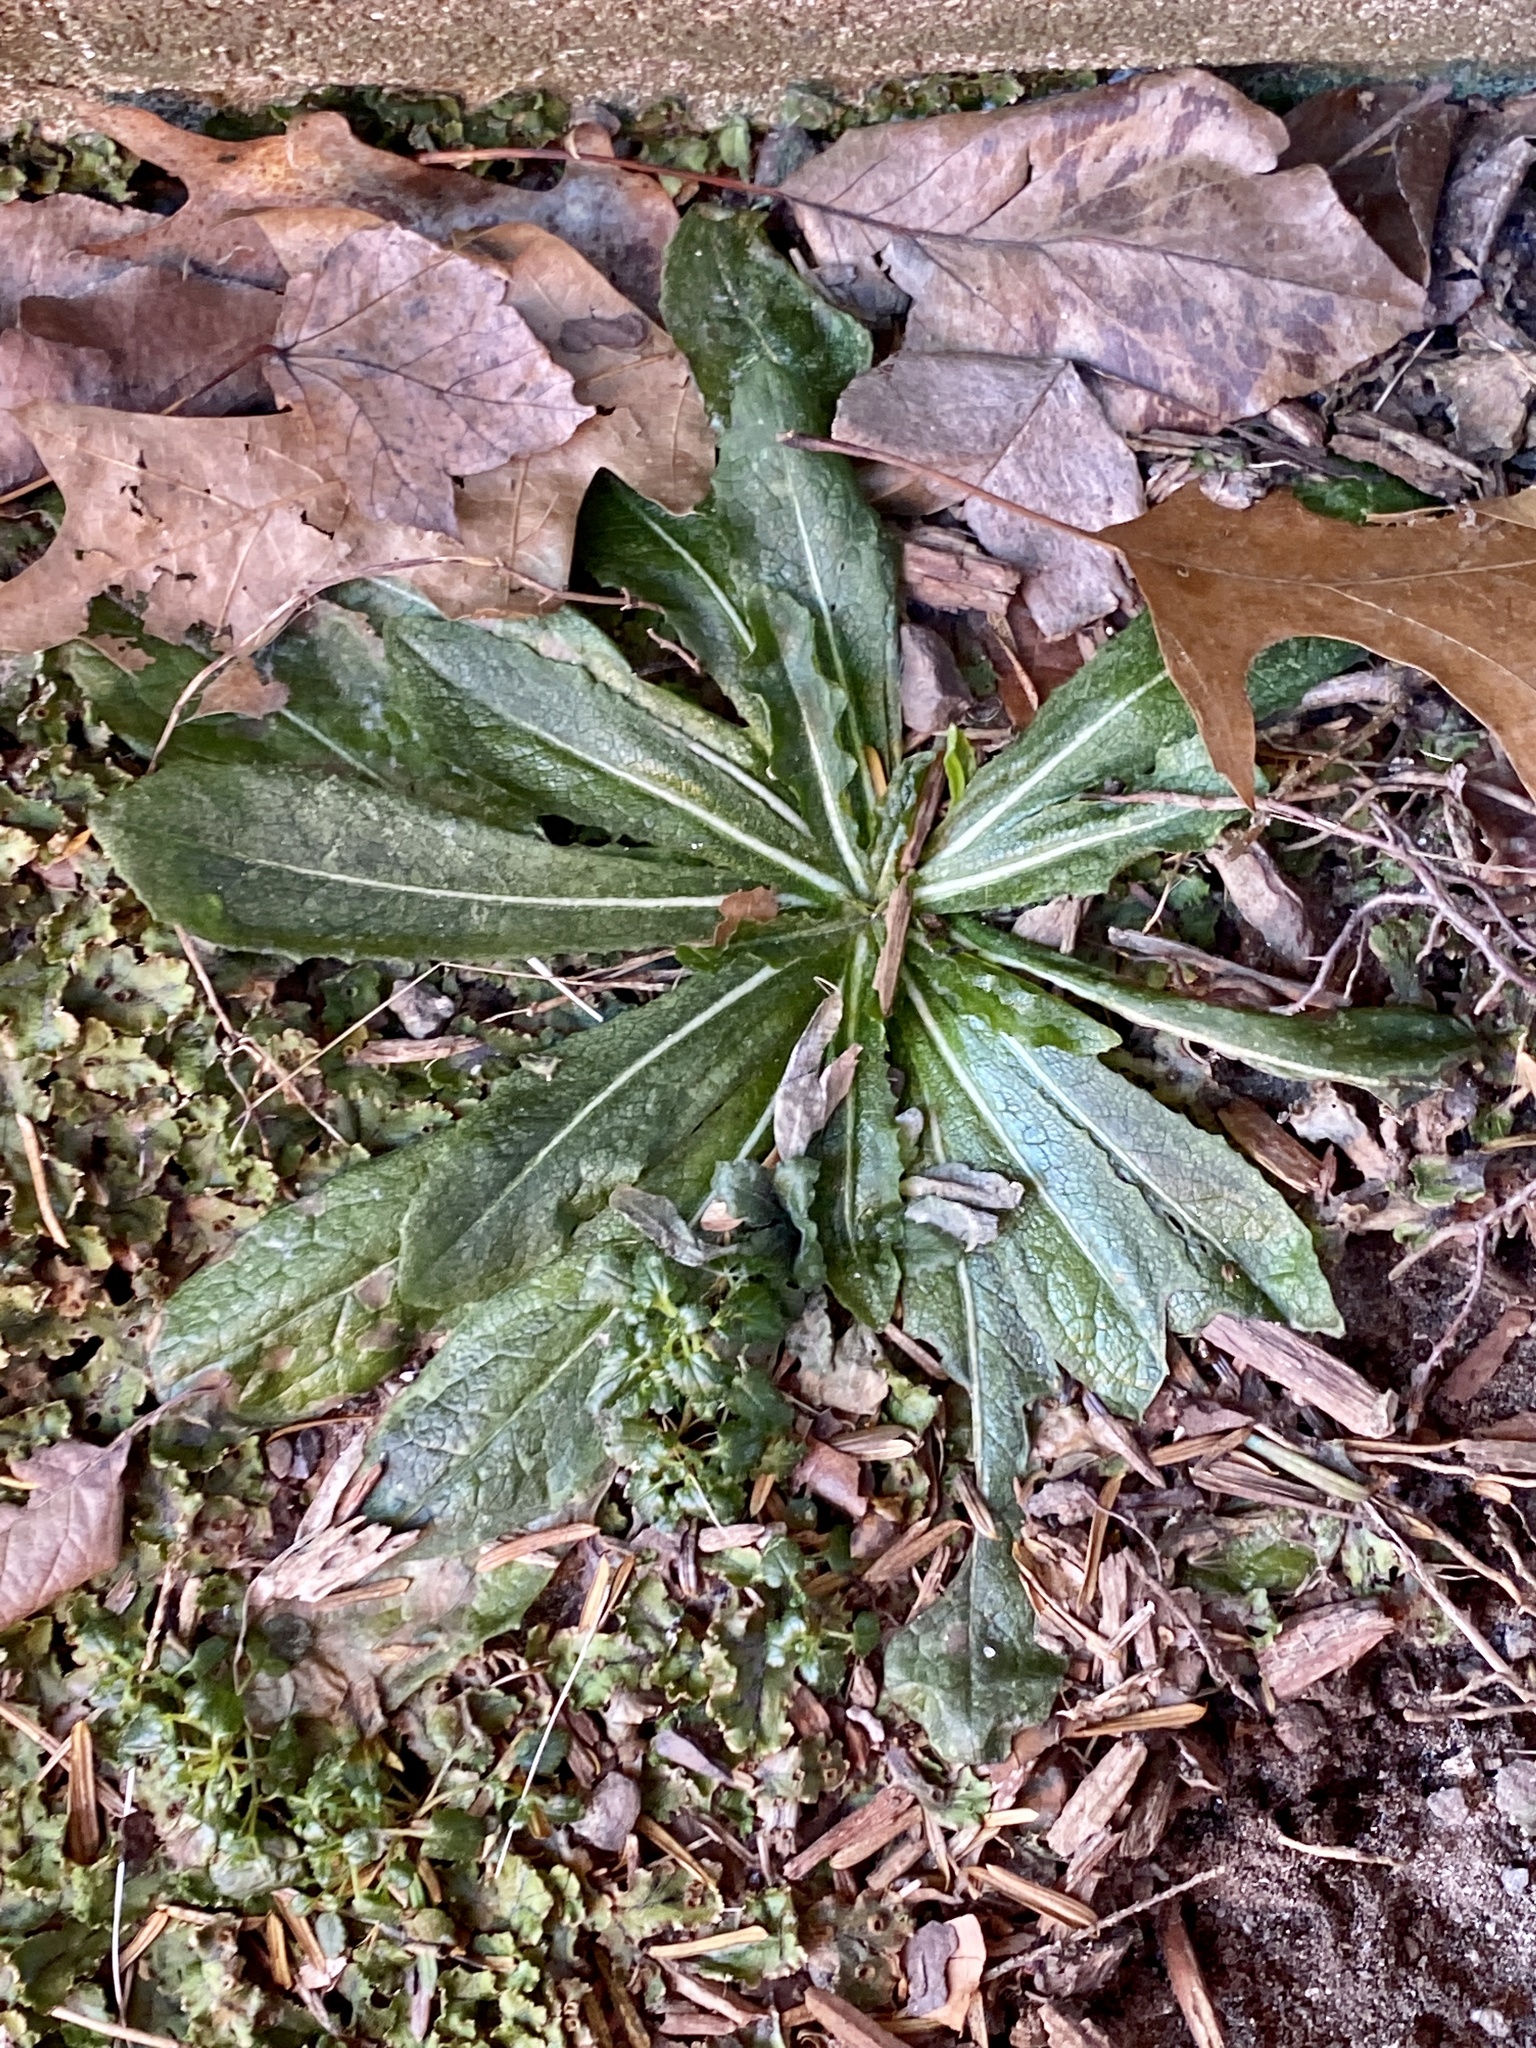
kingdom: Plantae
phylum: Tracheophyta
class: Magnoliopsida
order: Asterales
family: Asteraceae
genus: Hypochaeris
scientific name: Hypochaeris radicata
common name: Flatweed
